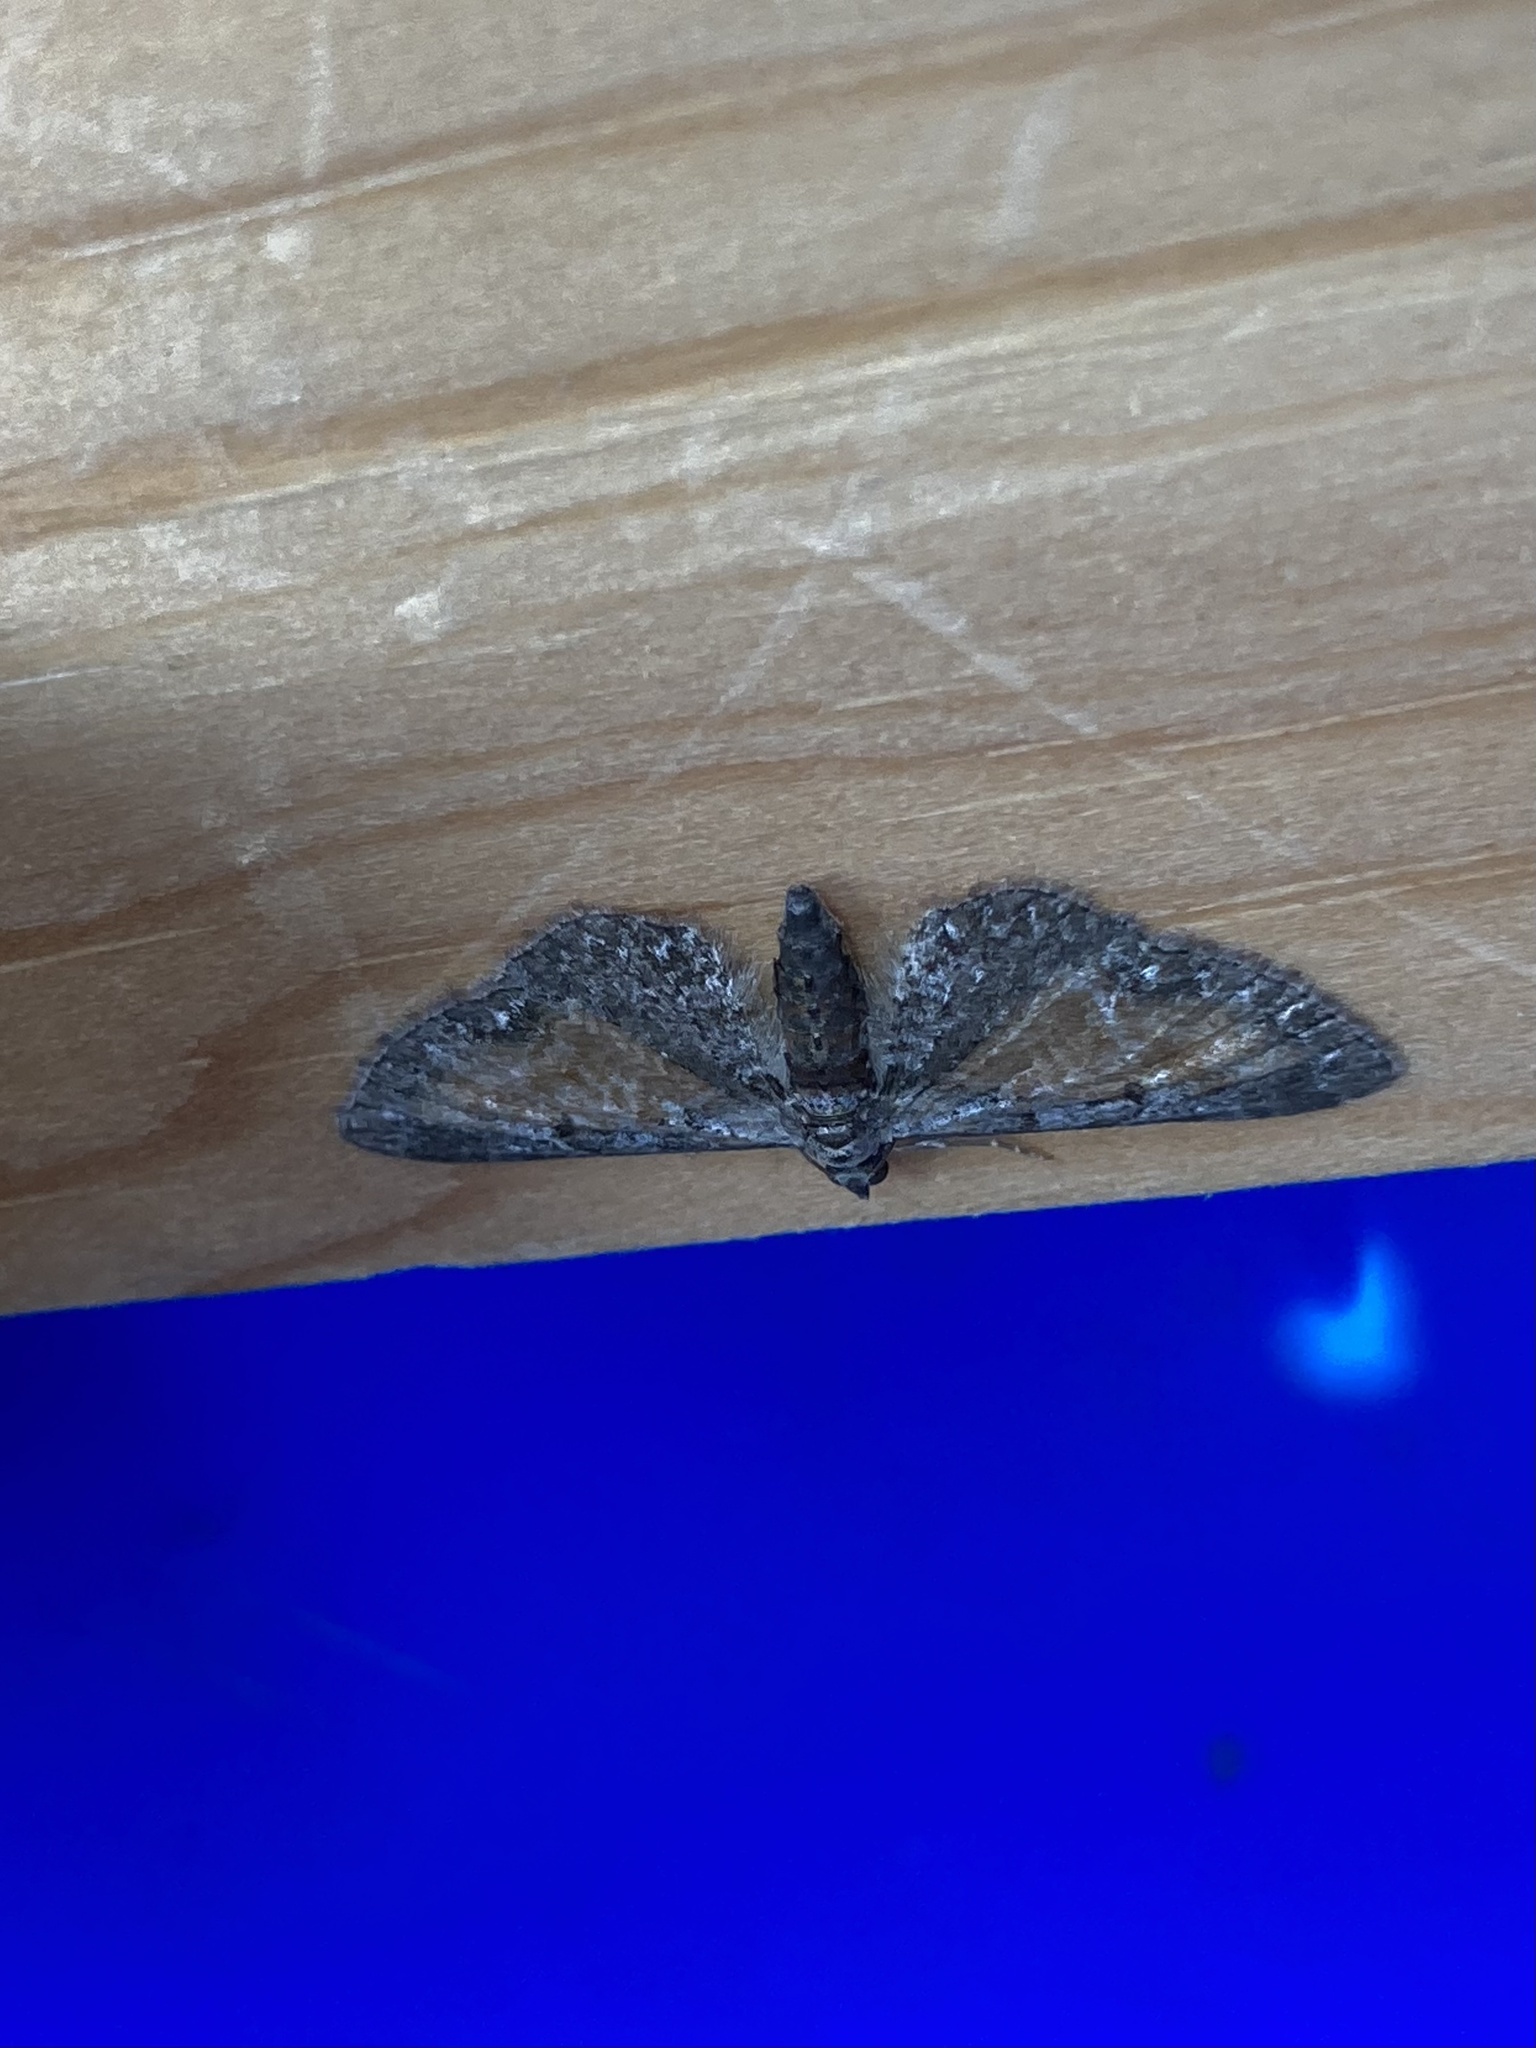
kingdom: Animalia
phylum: Arthropoda
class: Insecta
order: Lepidoptera
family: Geometridae
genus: Eupithecia
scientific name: Eupithecia icterata
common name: Tawny speckled pug
